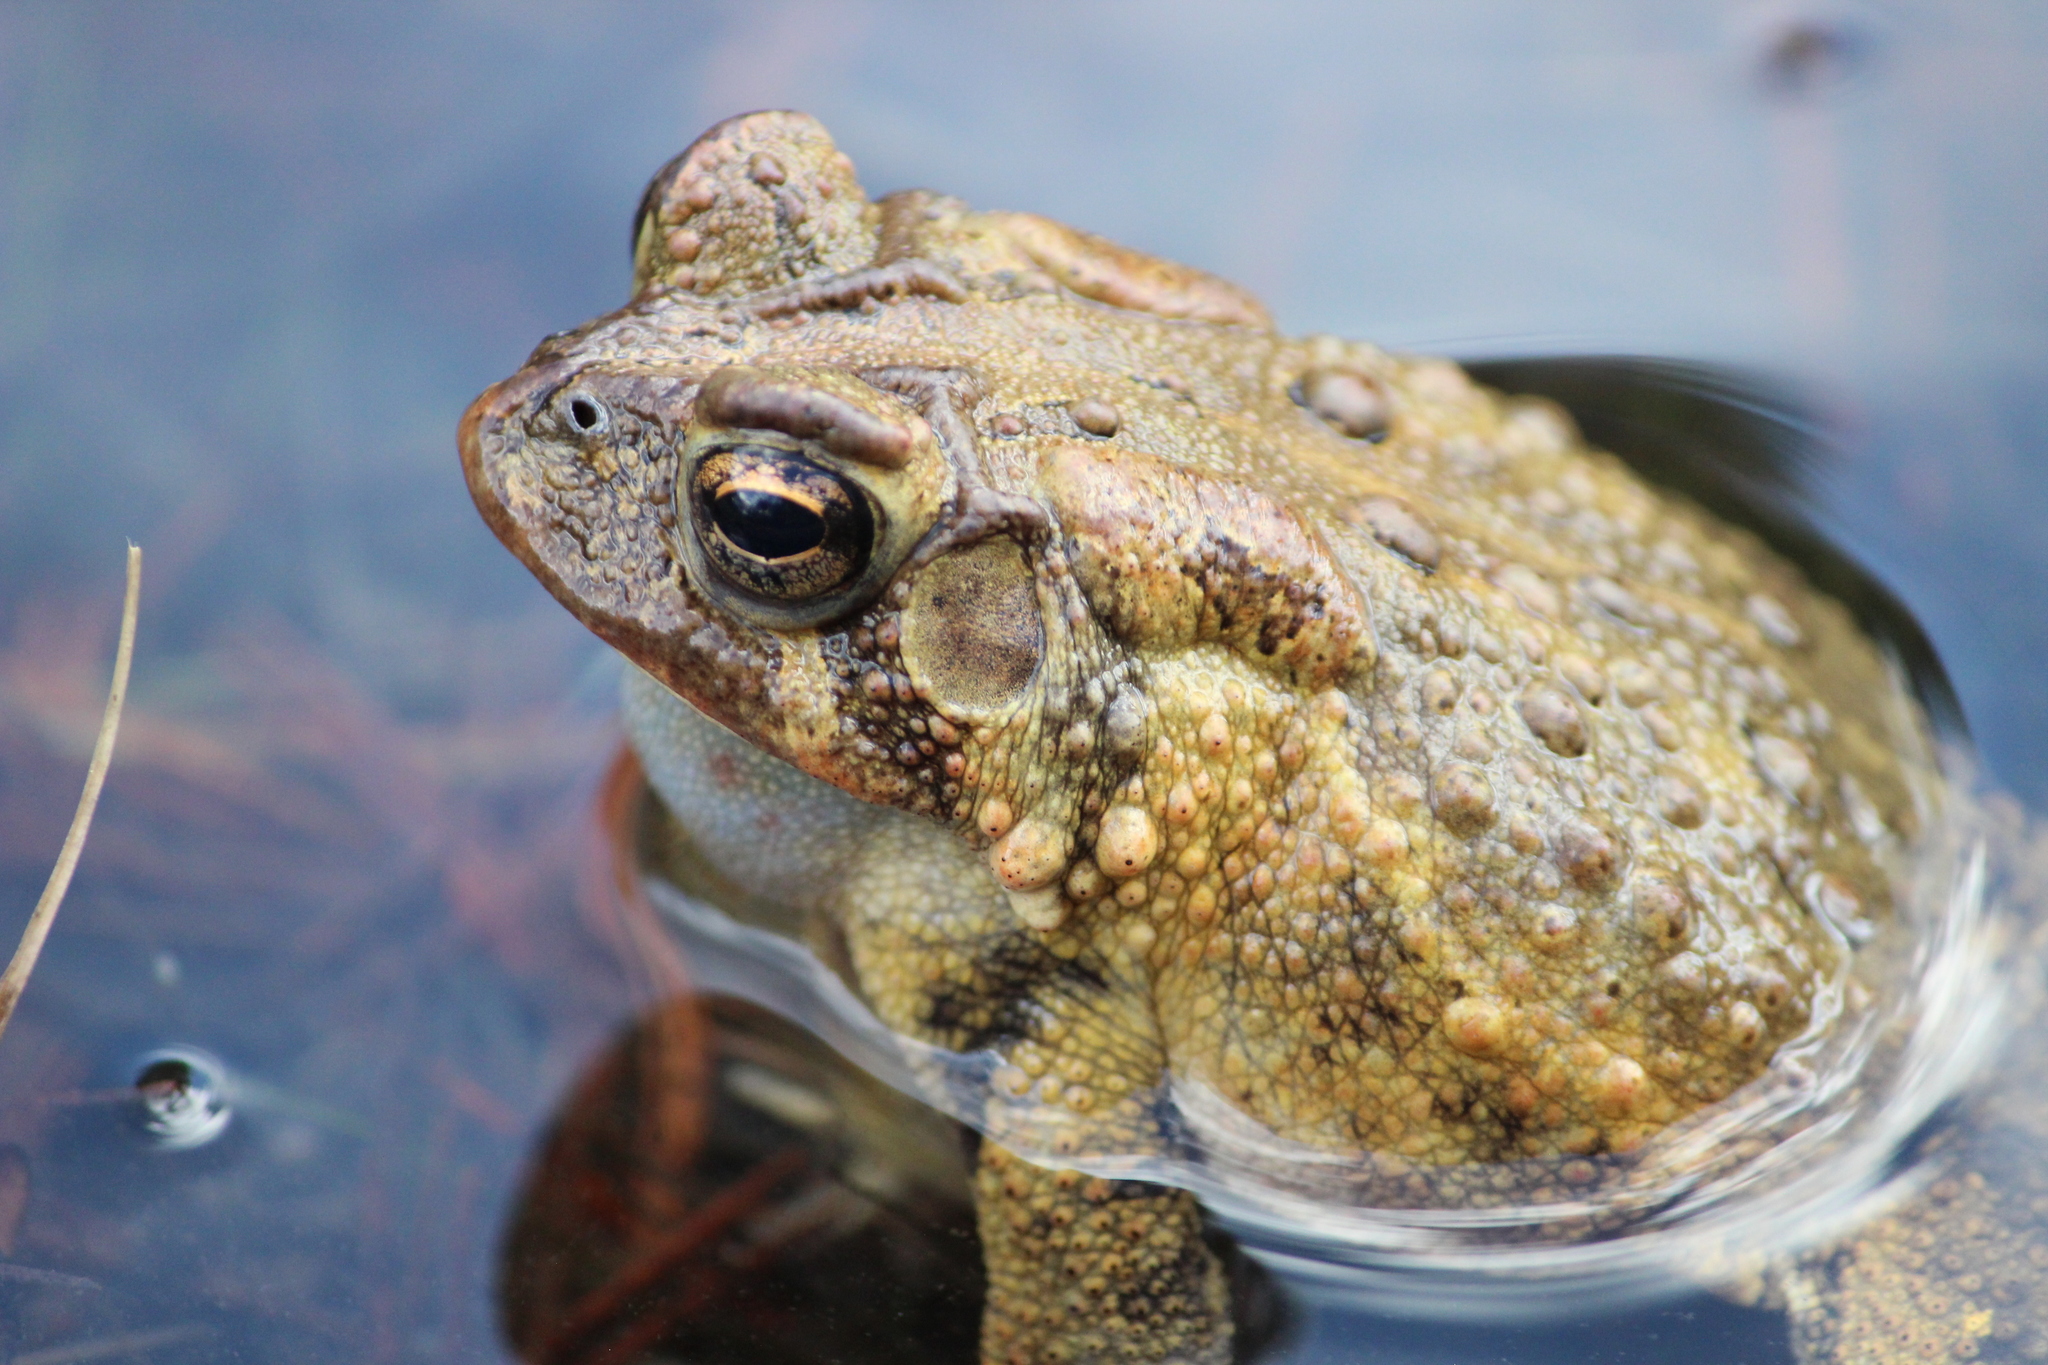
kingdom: Animalia
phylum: Chordata
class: Amphibia
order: Anura
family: Bufonidae
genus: Anaxyrus
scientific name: Anaxyrus americanus
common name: American toad
